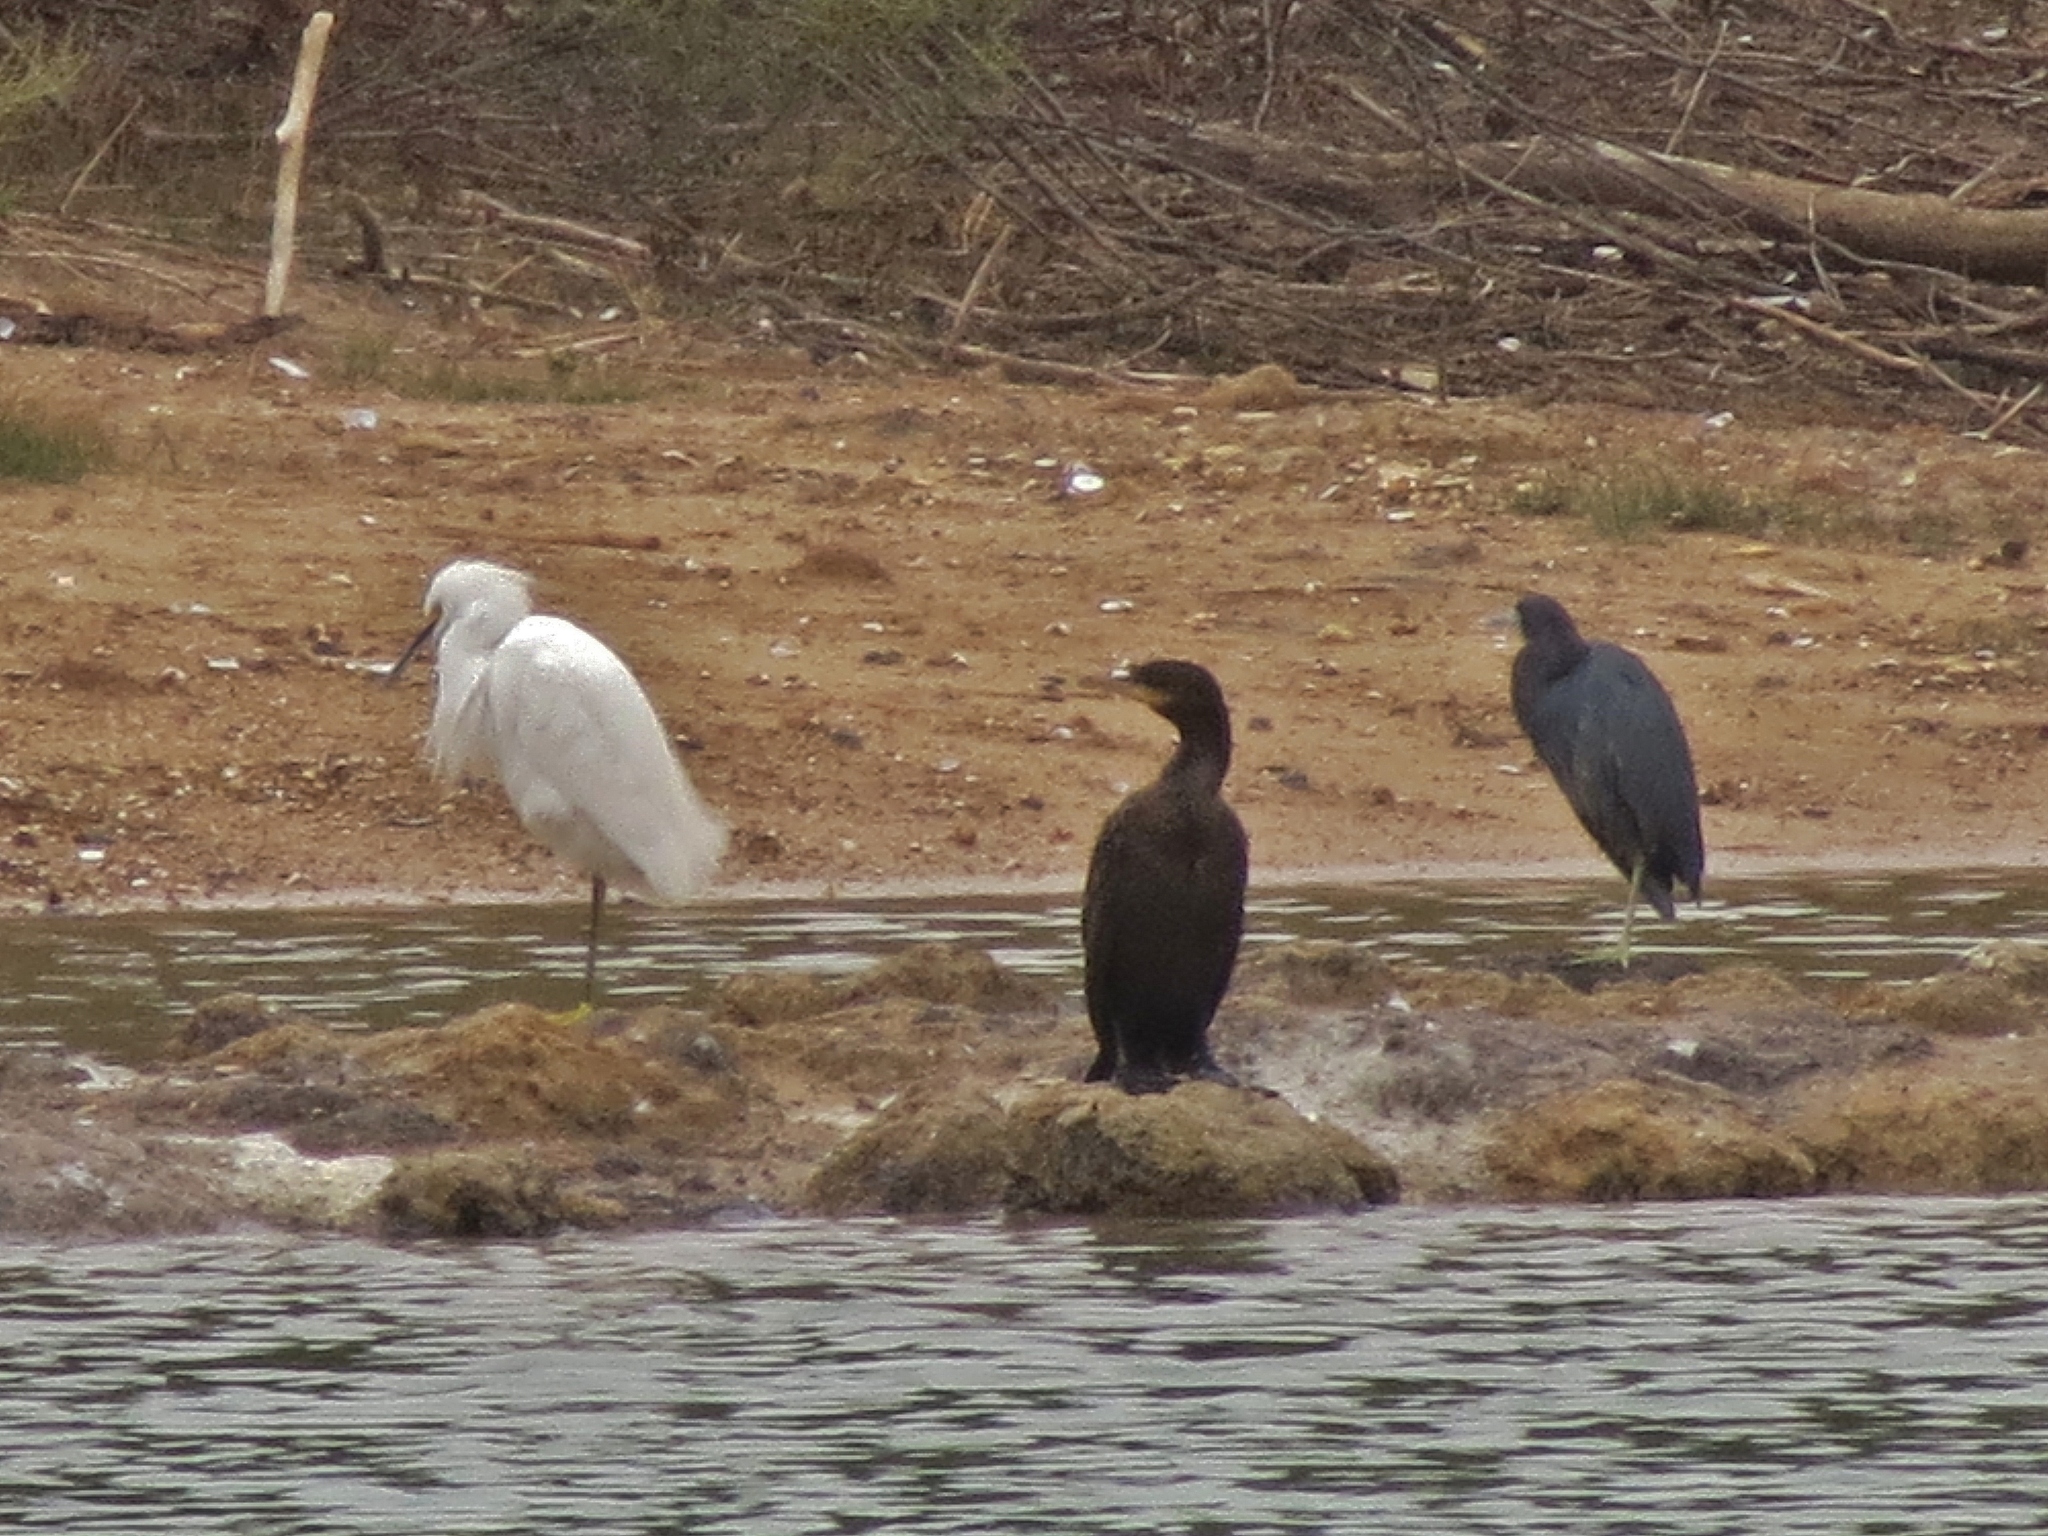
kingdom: Animalia
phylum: Chordata
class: Aves
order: Pelecaniformes
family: Ardeidae
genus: Egretta
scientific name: Egretta thula
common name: Snowy egret
